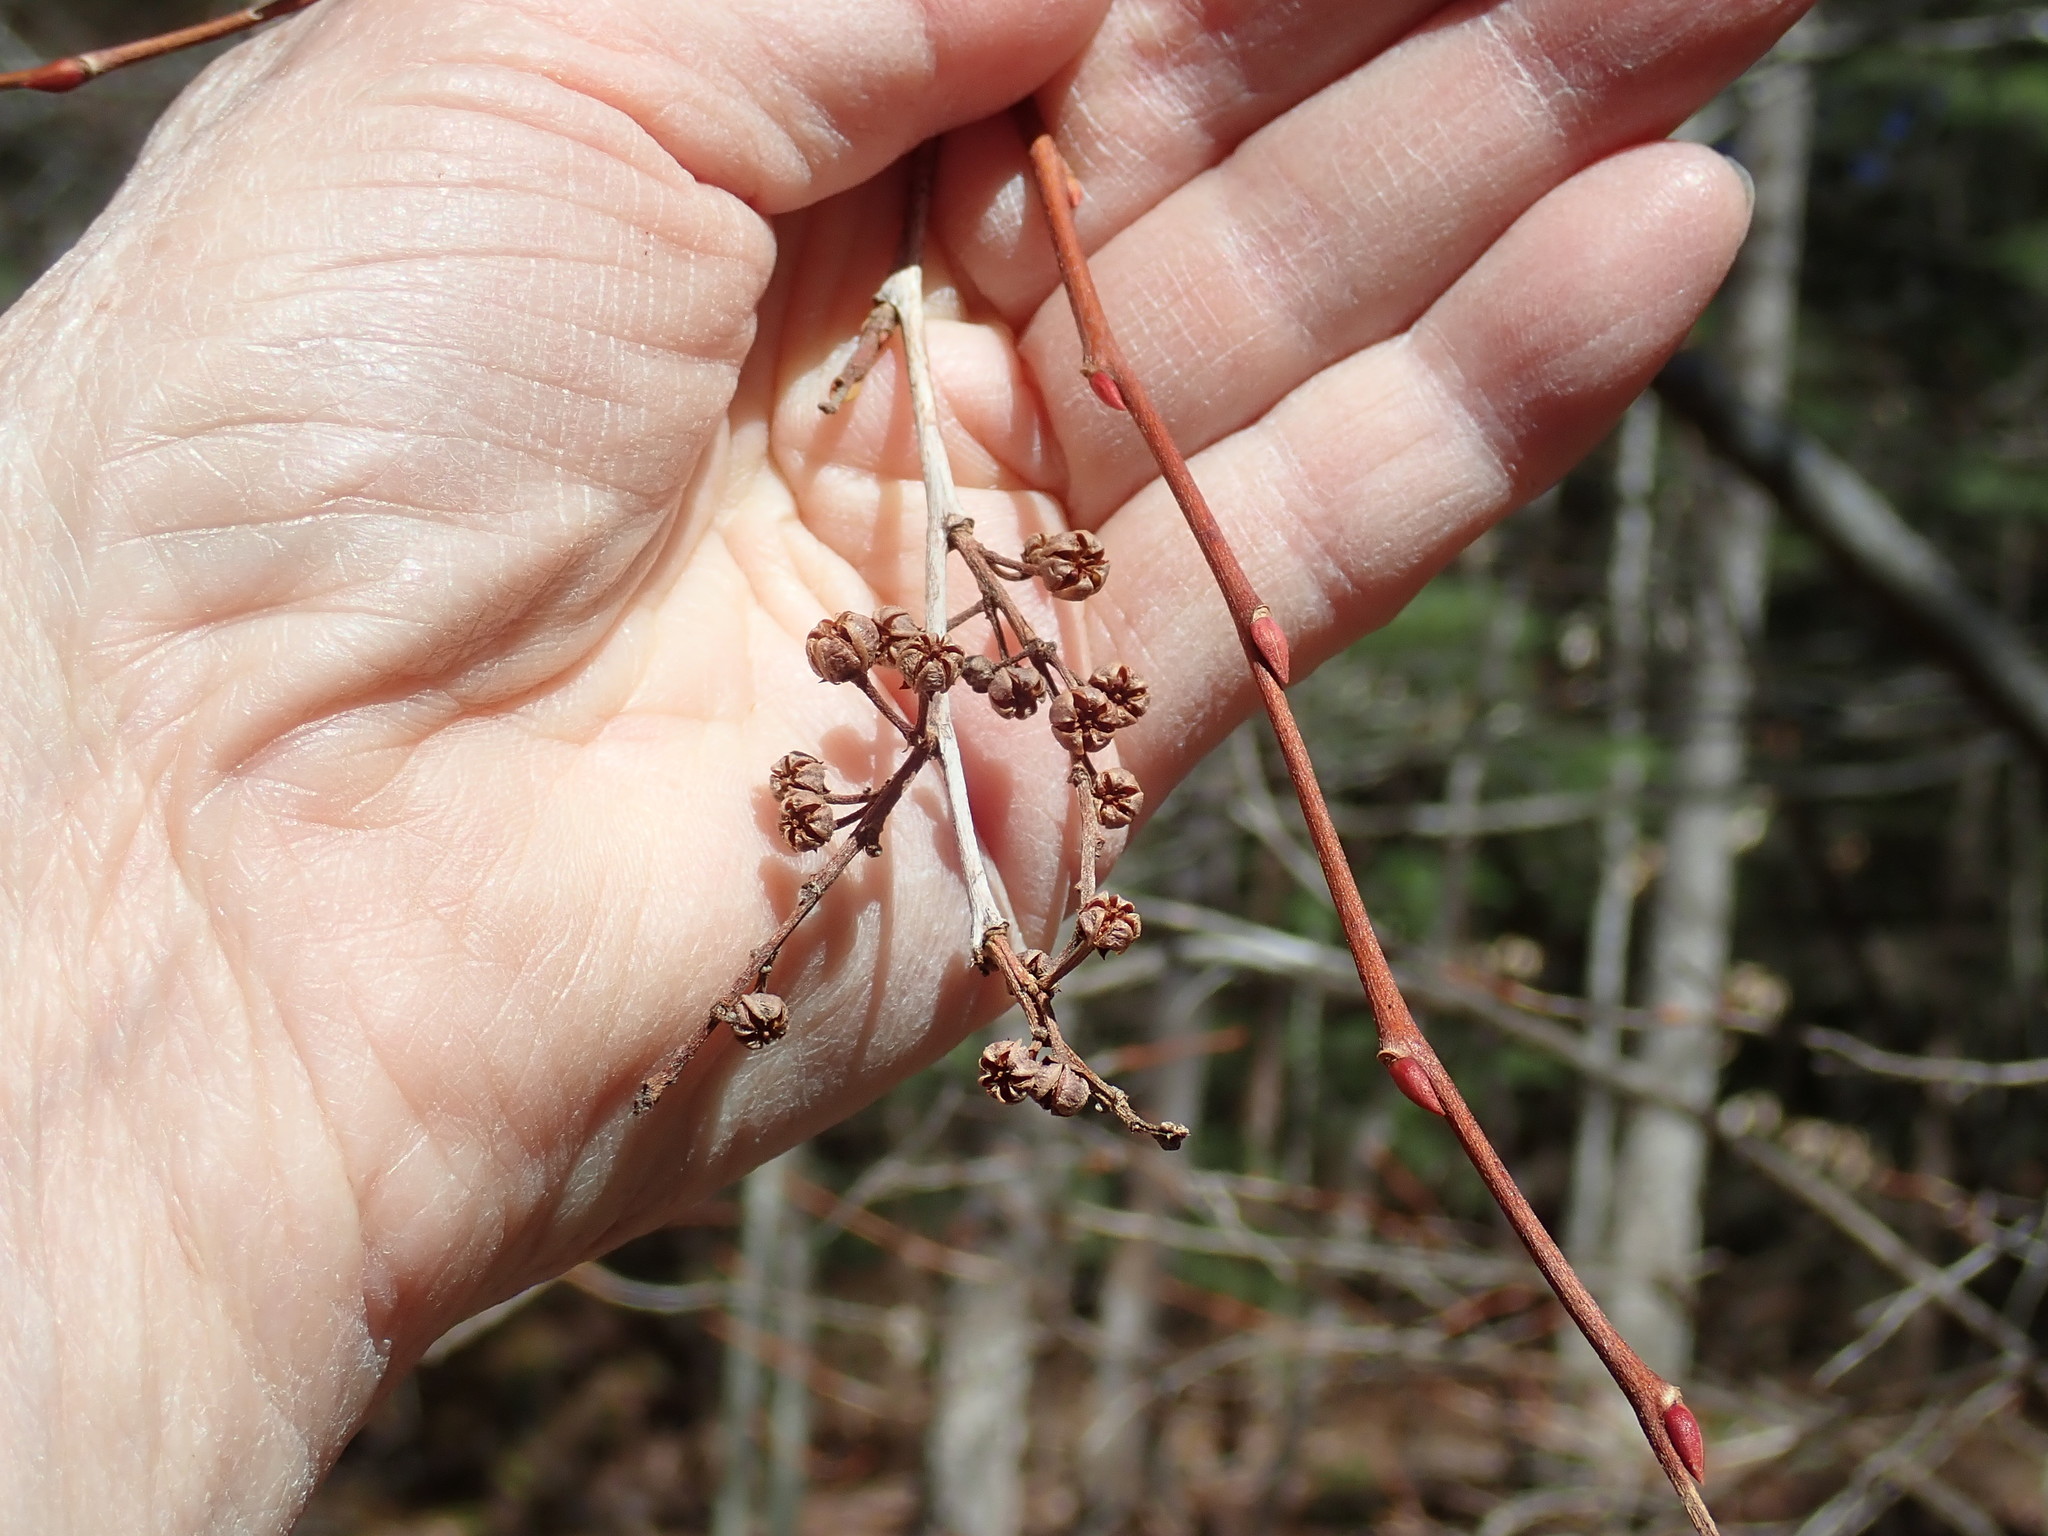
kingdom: Plantae
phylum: Tracheophyta
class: Magnoliopsida
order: Ericales
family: Ericaceae
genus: Lyonia
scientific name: Lyonia ligustrina
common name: Maleberry
